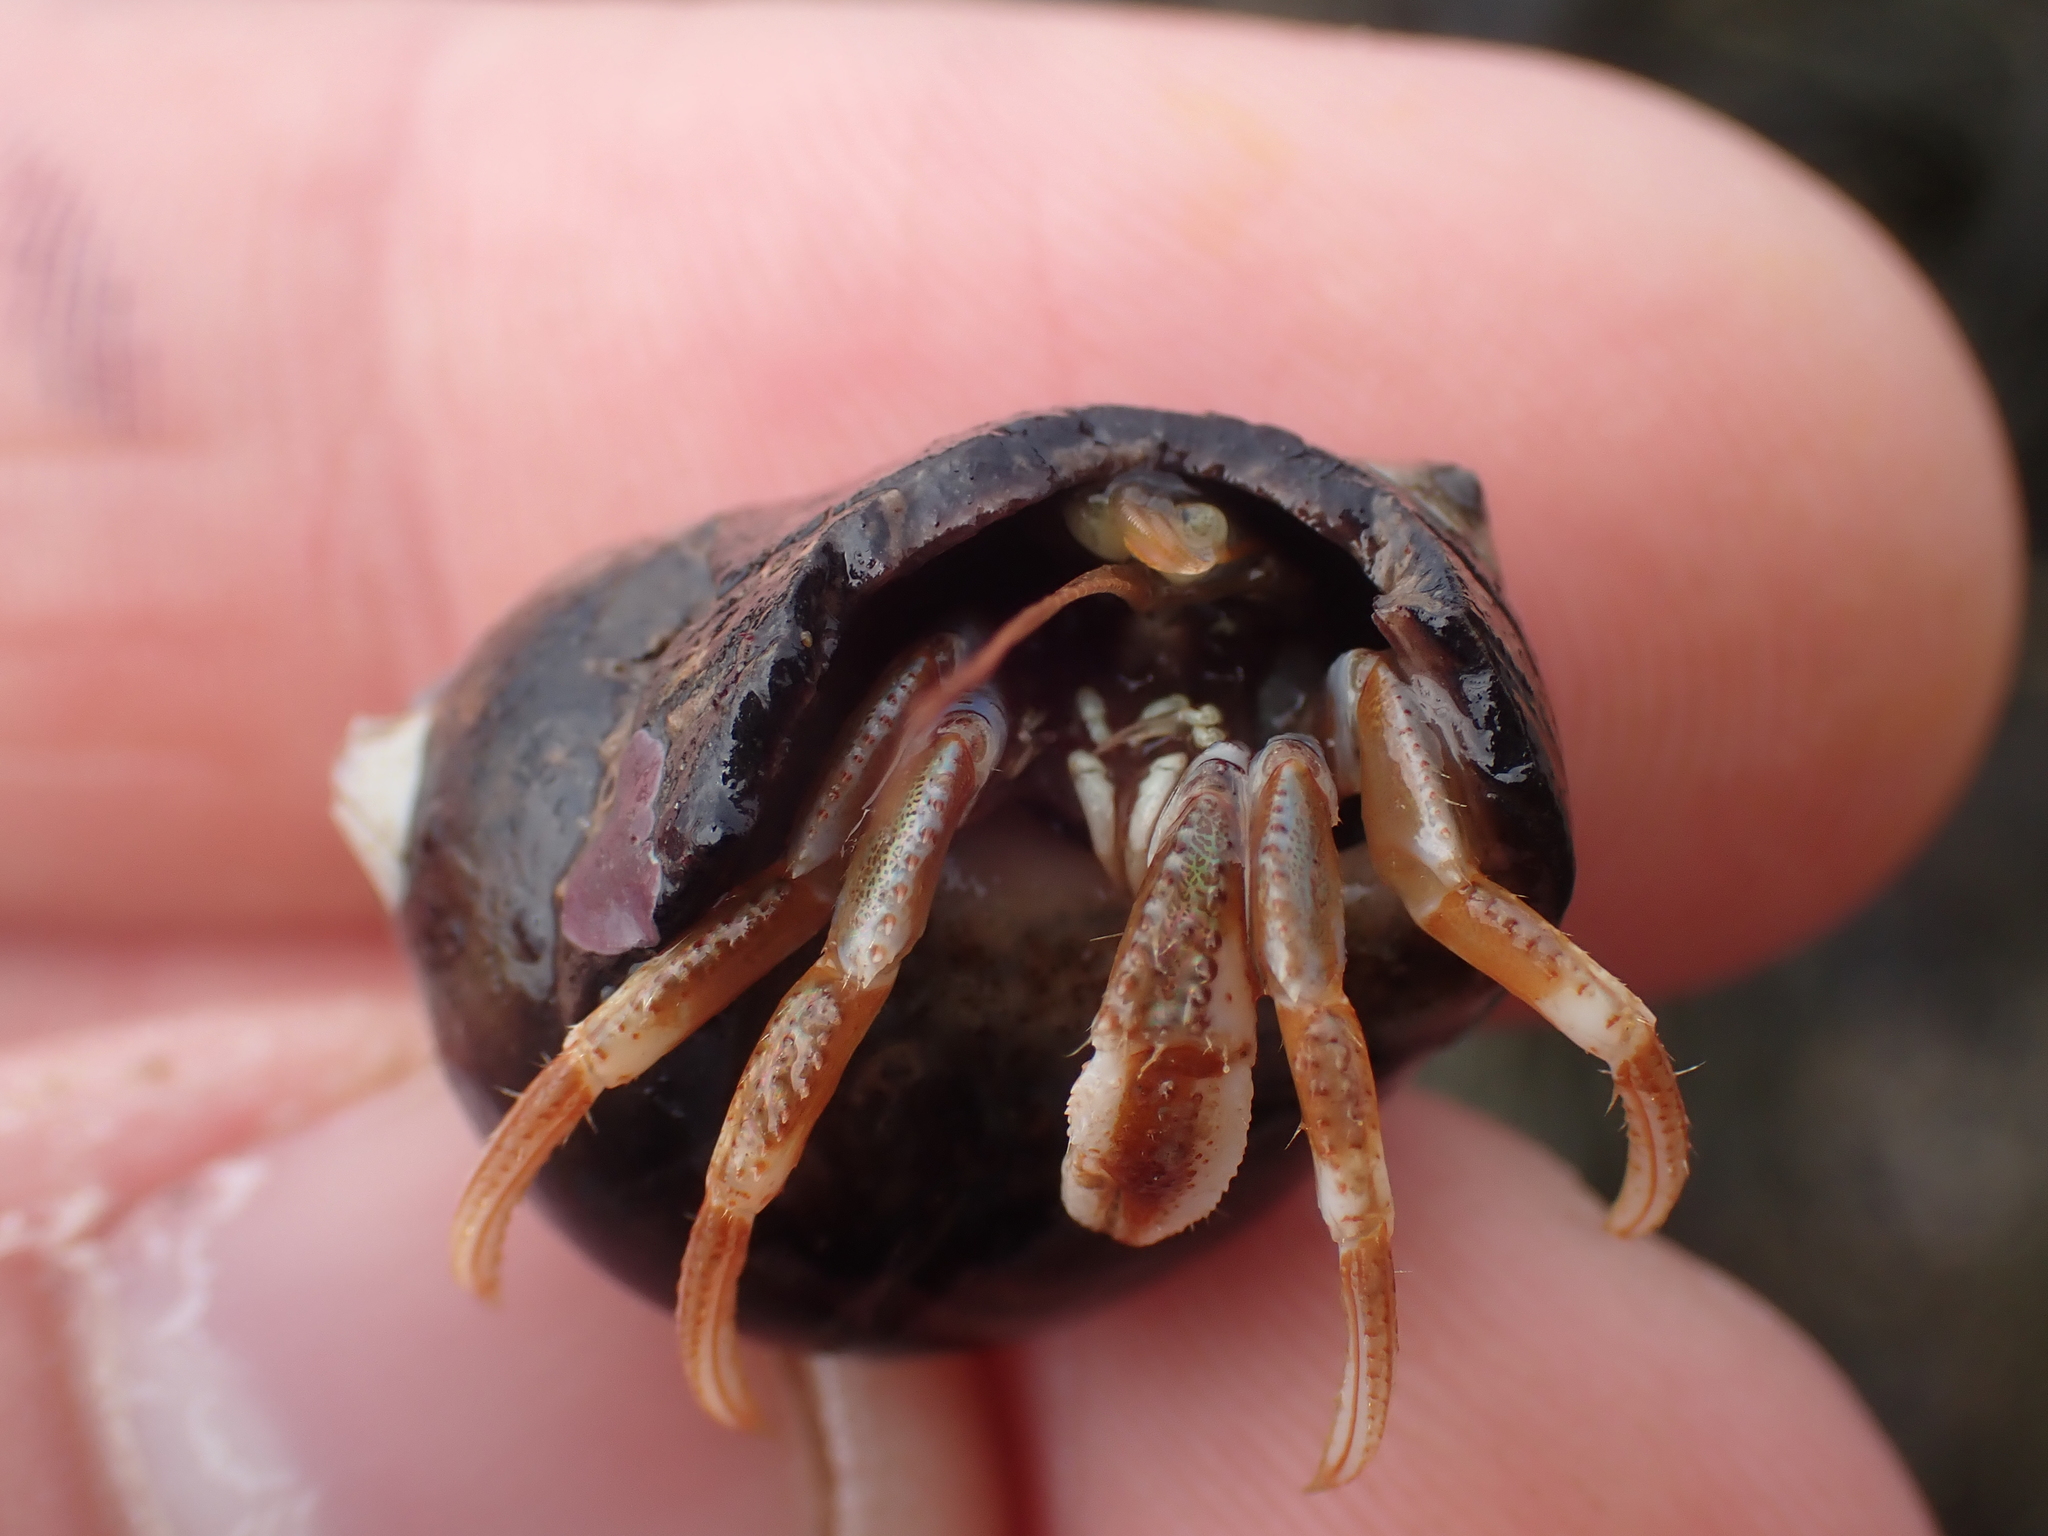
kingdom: Animalia
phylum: Arthropoda
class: Malacostraca
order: Decapoda
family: Paguridae
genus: Pagurus
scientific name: Pagurus acadianus
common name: Acadian hermit crab
